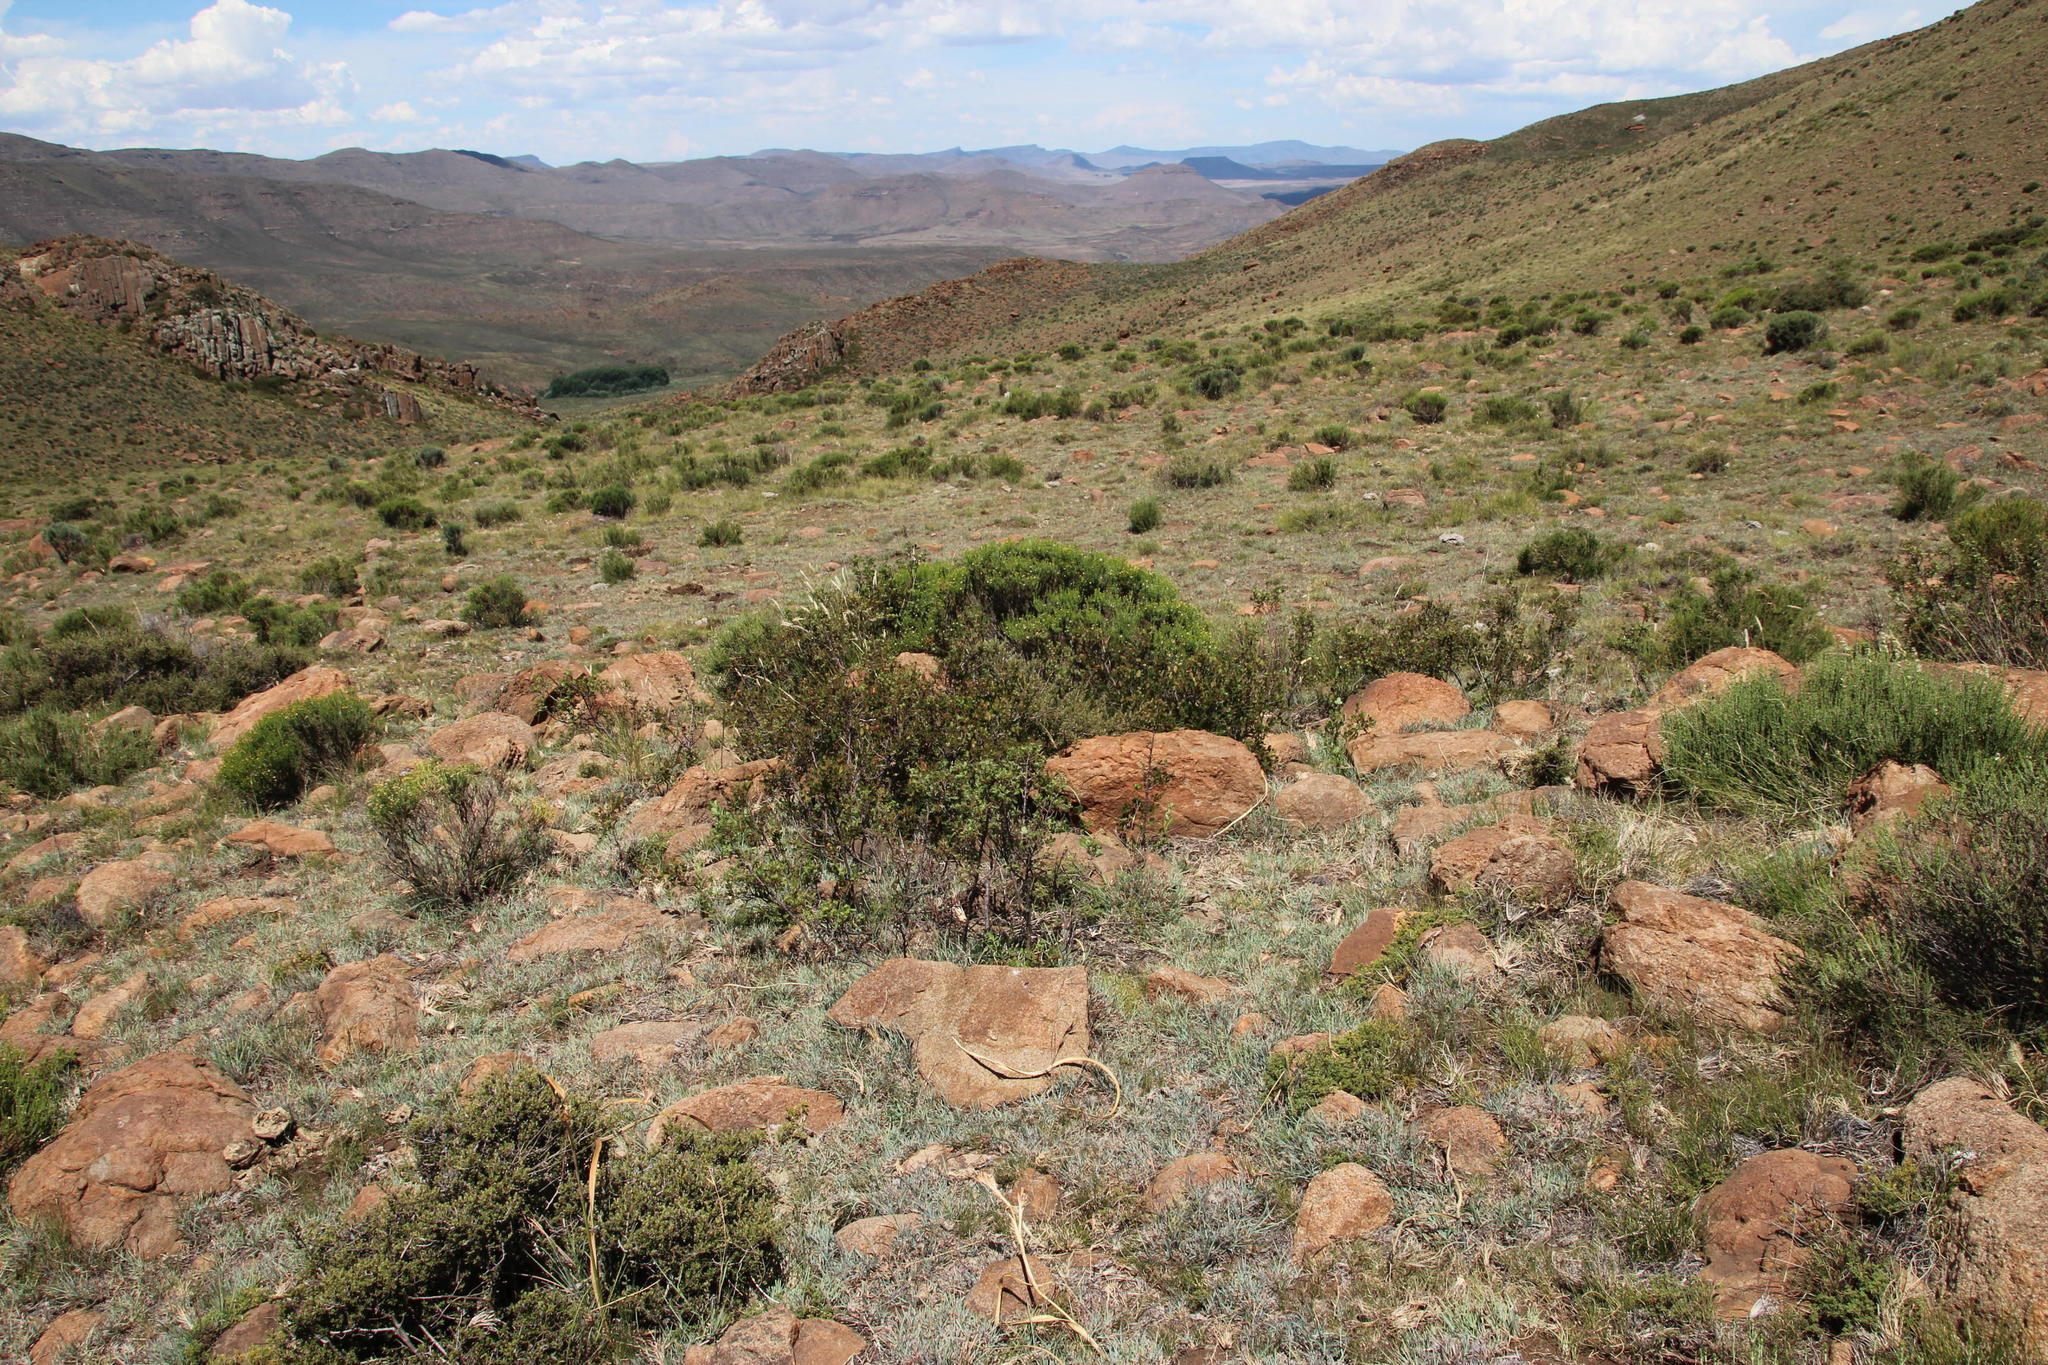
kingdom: Plantae
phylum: Tracheophyta
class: Magnoliopsida
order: Sapindales
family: Anacardiaceae
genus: Searsia
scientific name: Searsia divaricata
